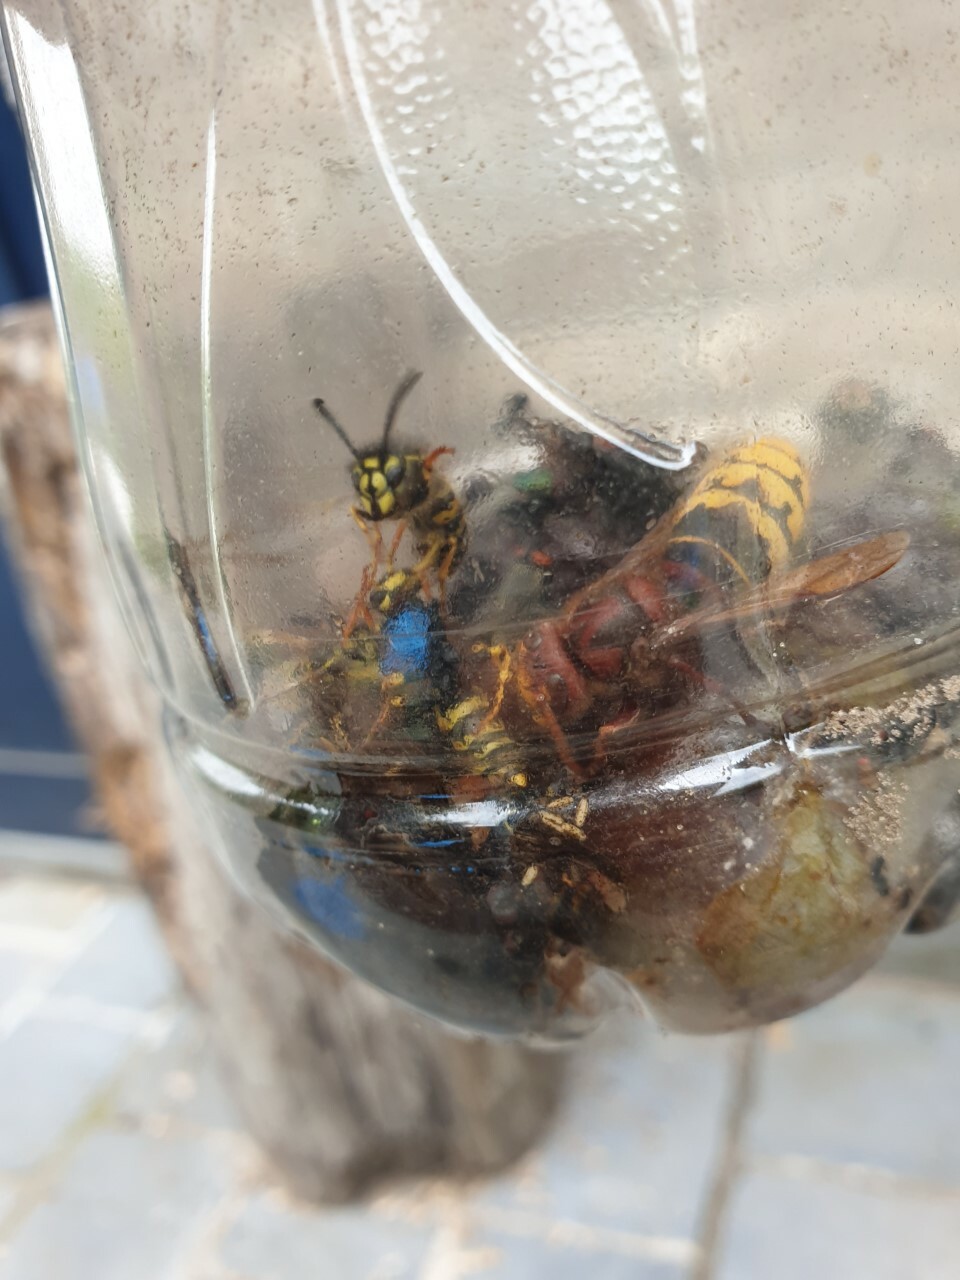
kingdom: Animalia
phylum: Arthropoda
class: Insecta
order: Hymenoptera
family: Vespidae
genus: Vespa
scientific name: Vespa crabro
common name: Hornet
